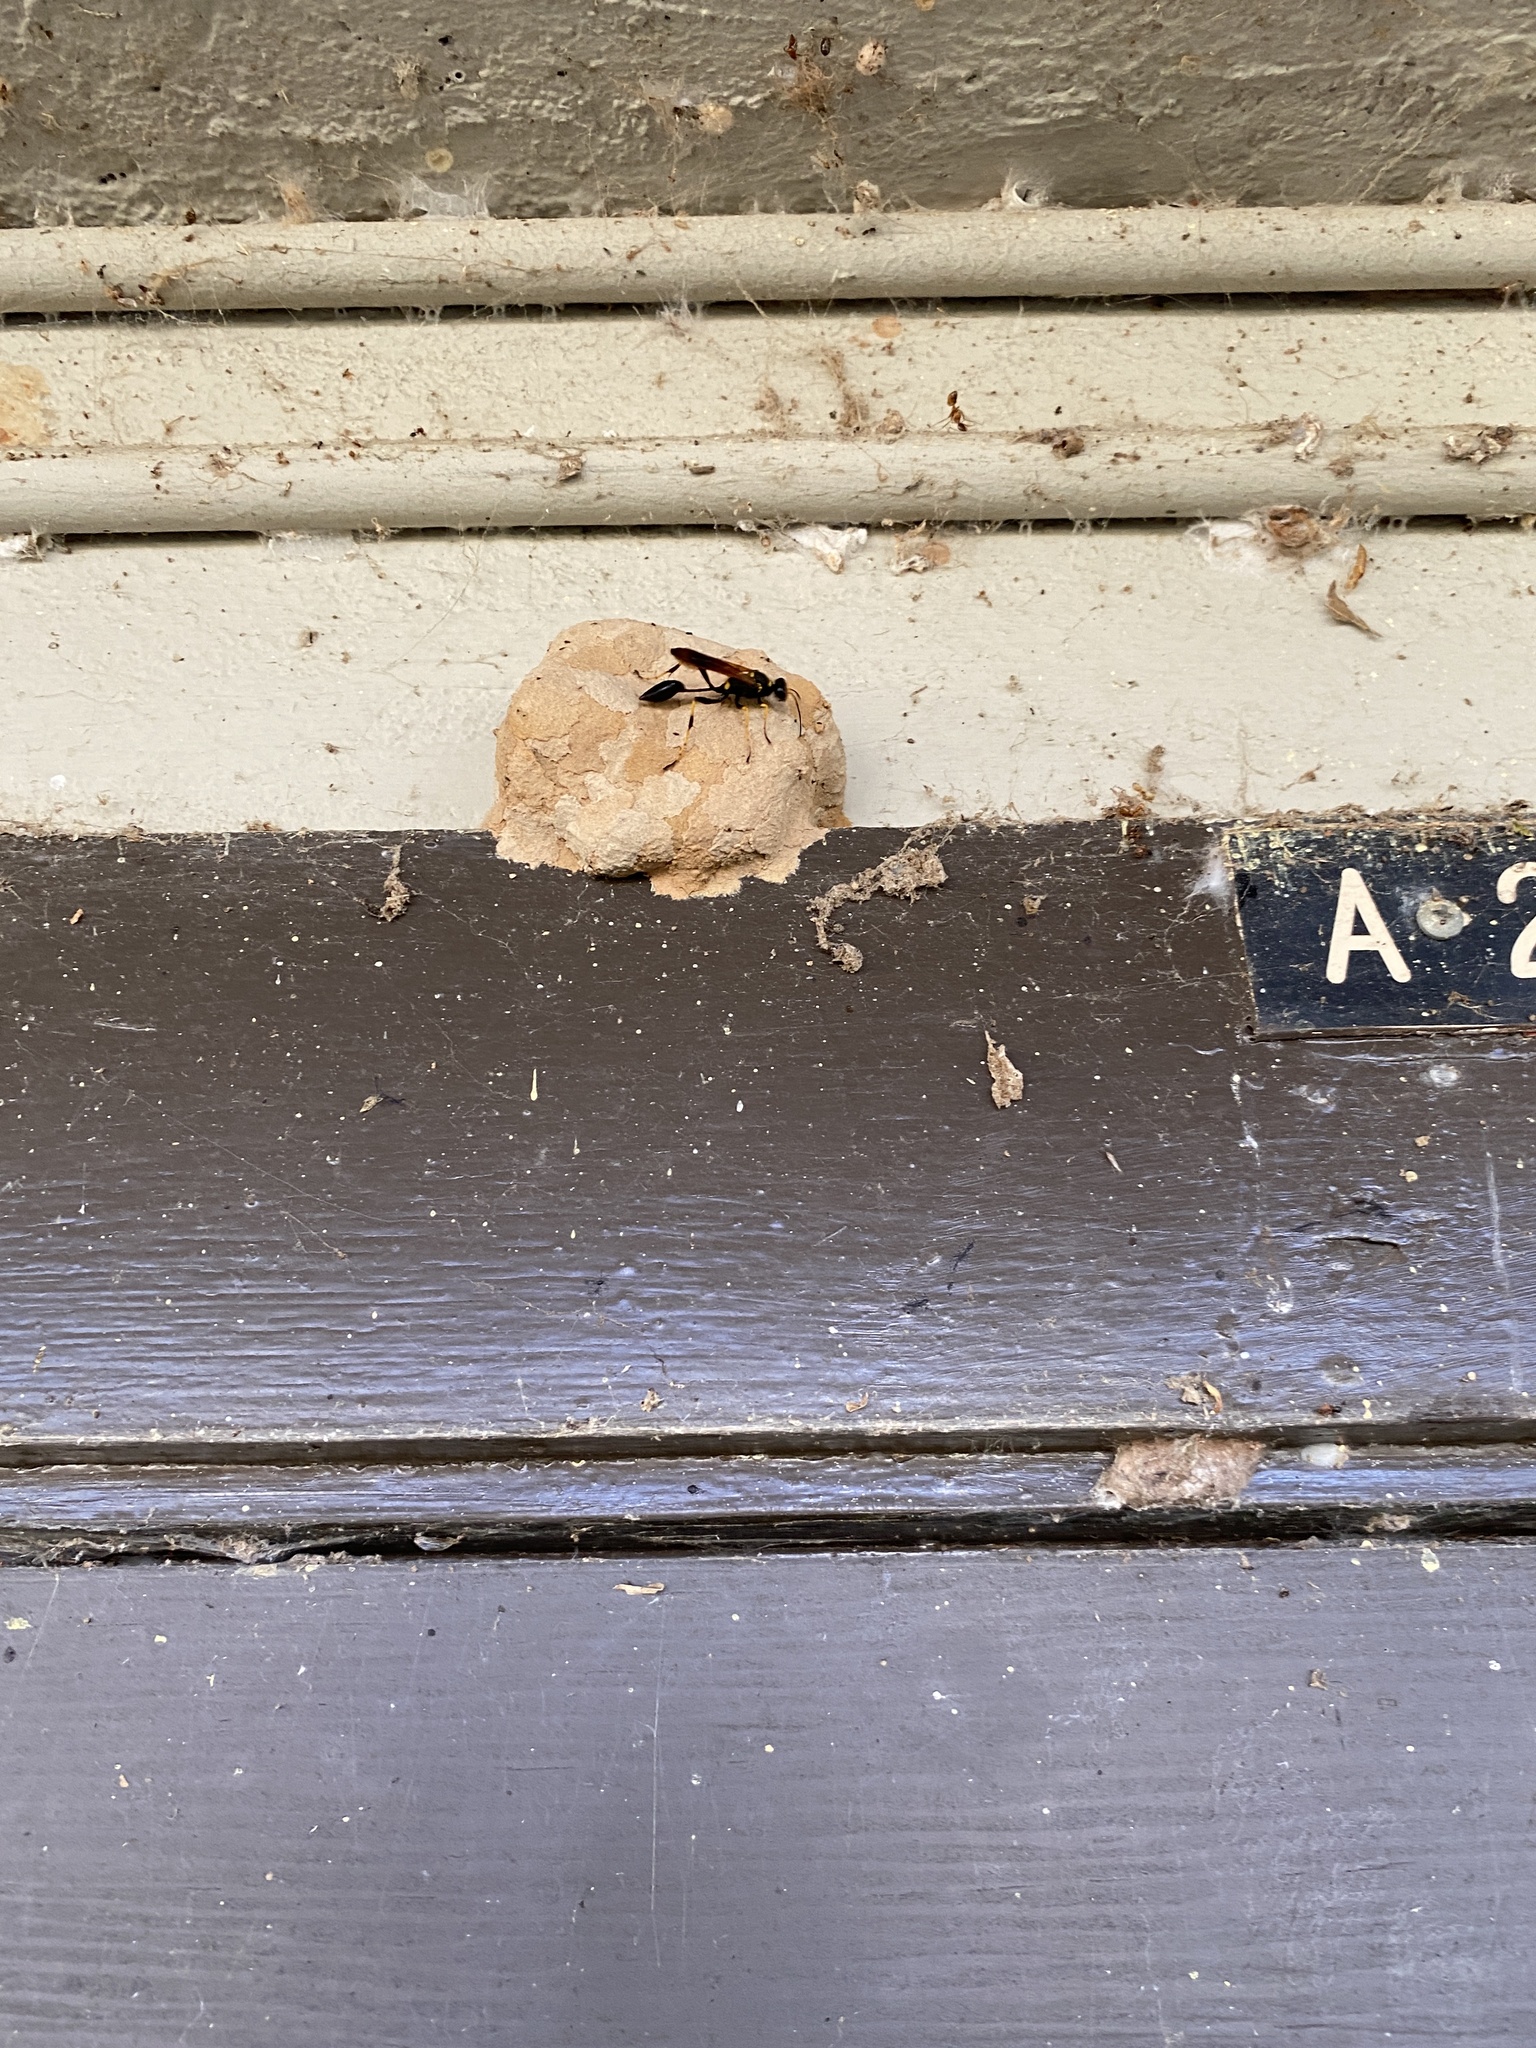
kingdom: Animalia
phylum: Arthropoda
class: Insecta
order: Hymenoptera
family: Sphecidae
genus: Sceliphron
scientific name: Sceliphron caementarium
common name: Mud dauber
